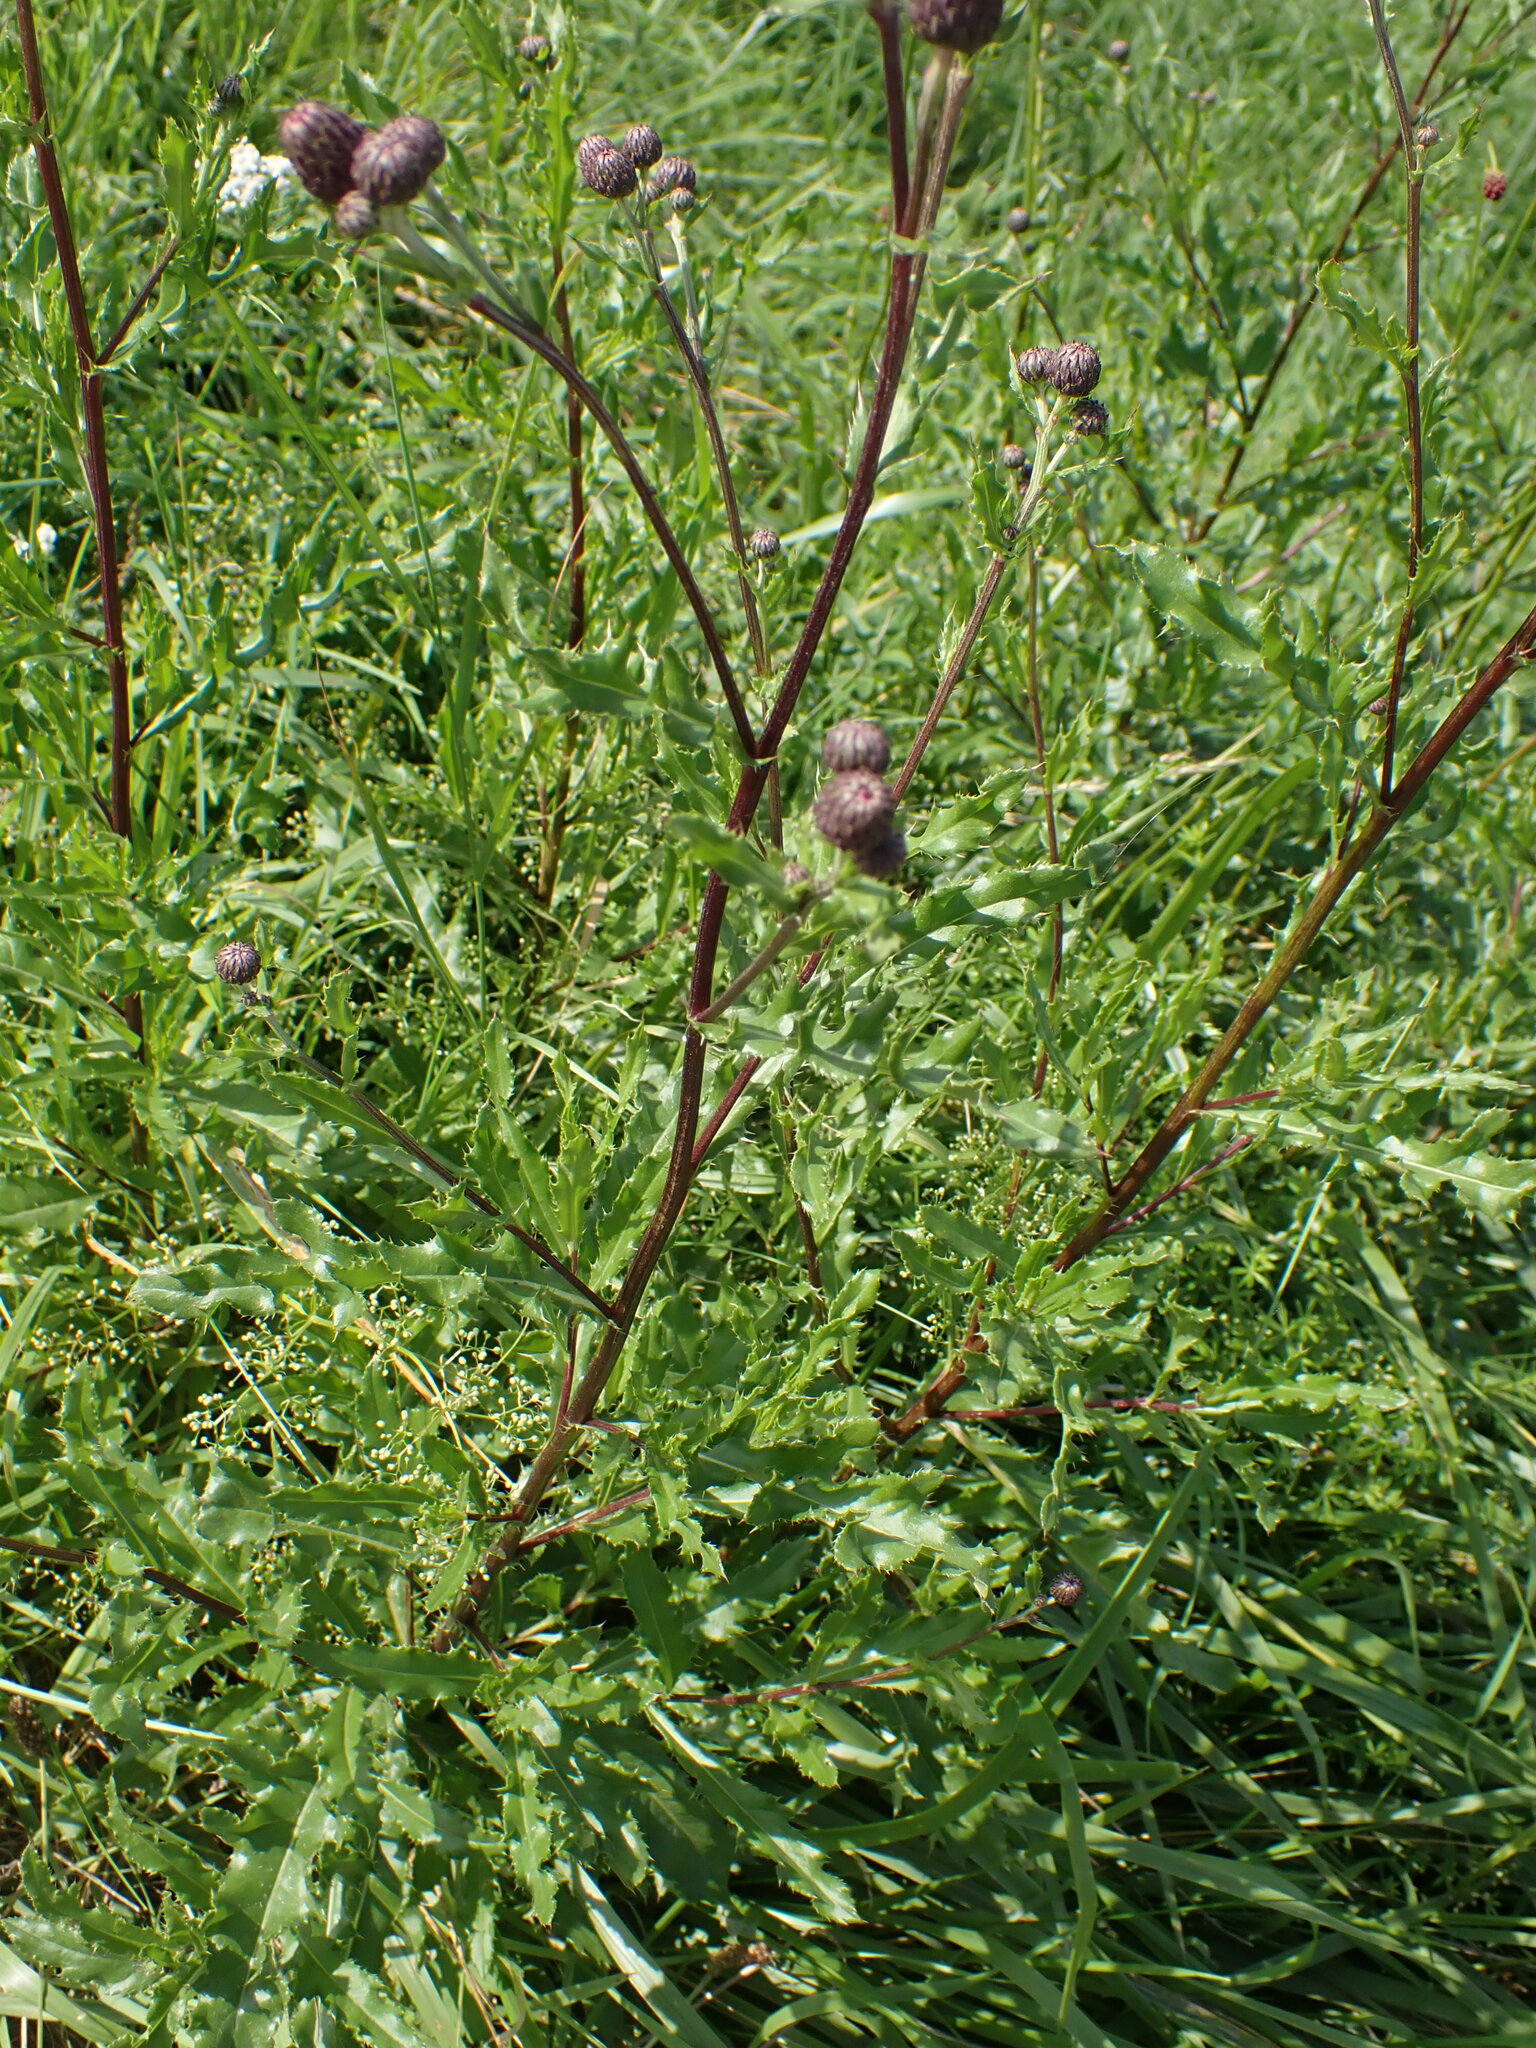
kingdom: Plantae
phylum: Tracheophyta
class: Magnoliopsida
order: Asterales
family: Asteraceae
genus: Cirsium
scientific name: Cirsium arvense
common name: Creeping thistle
